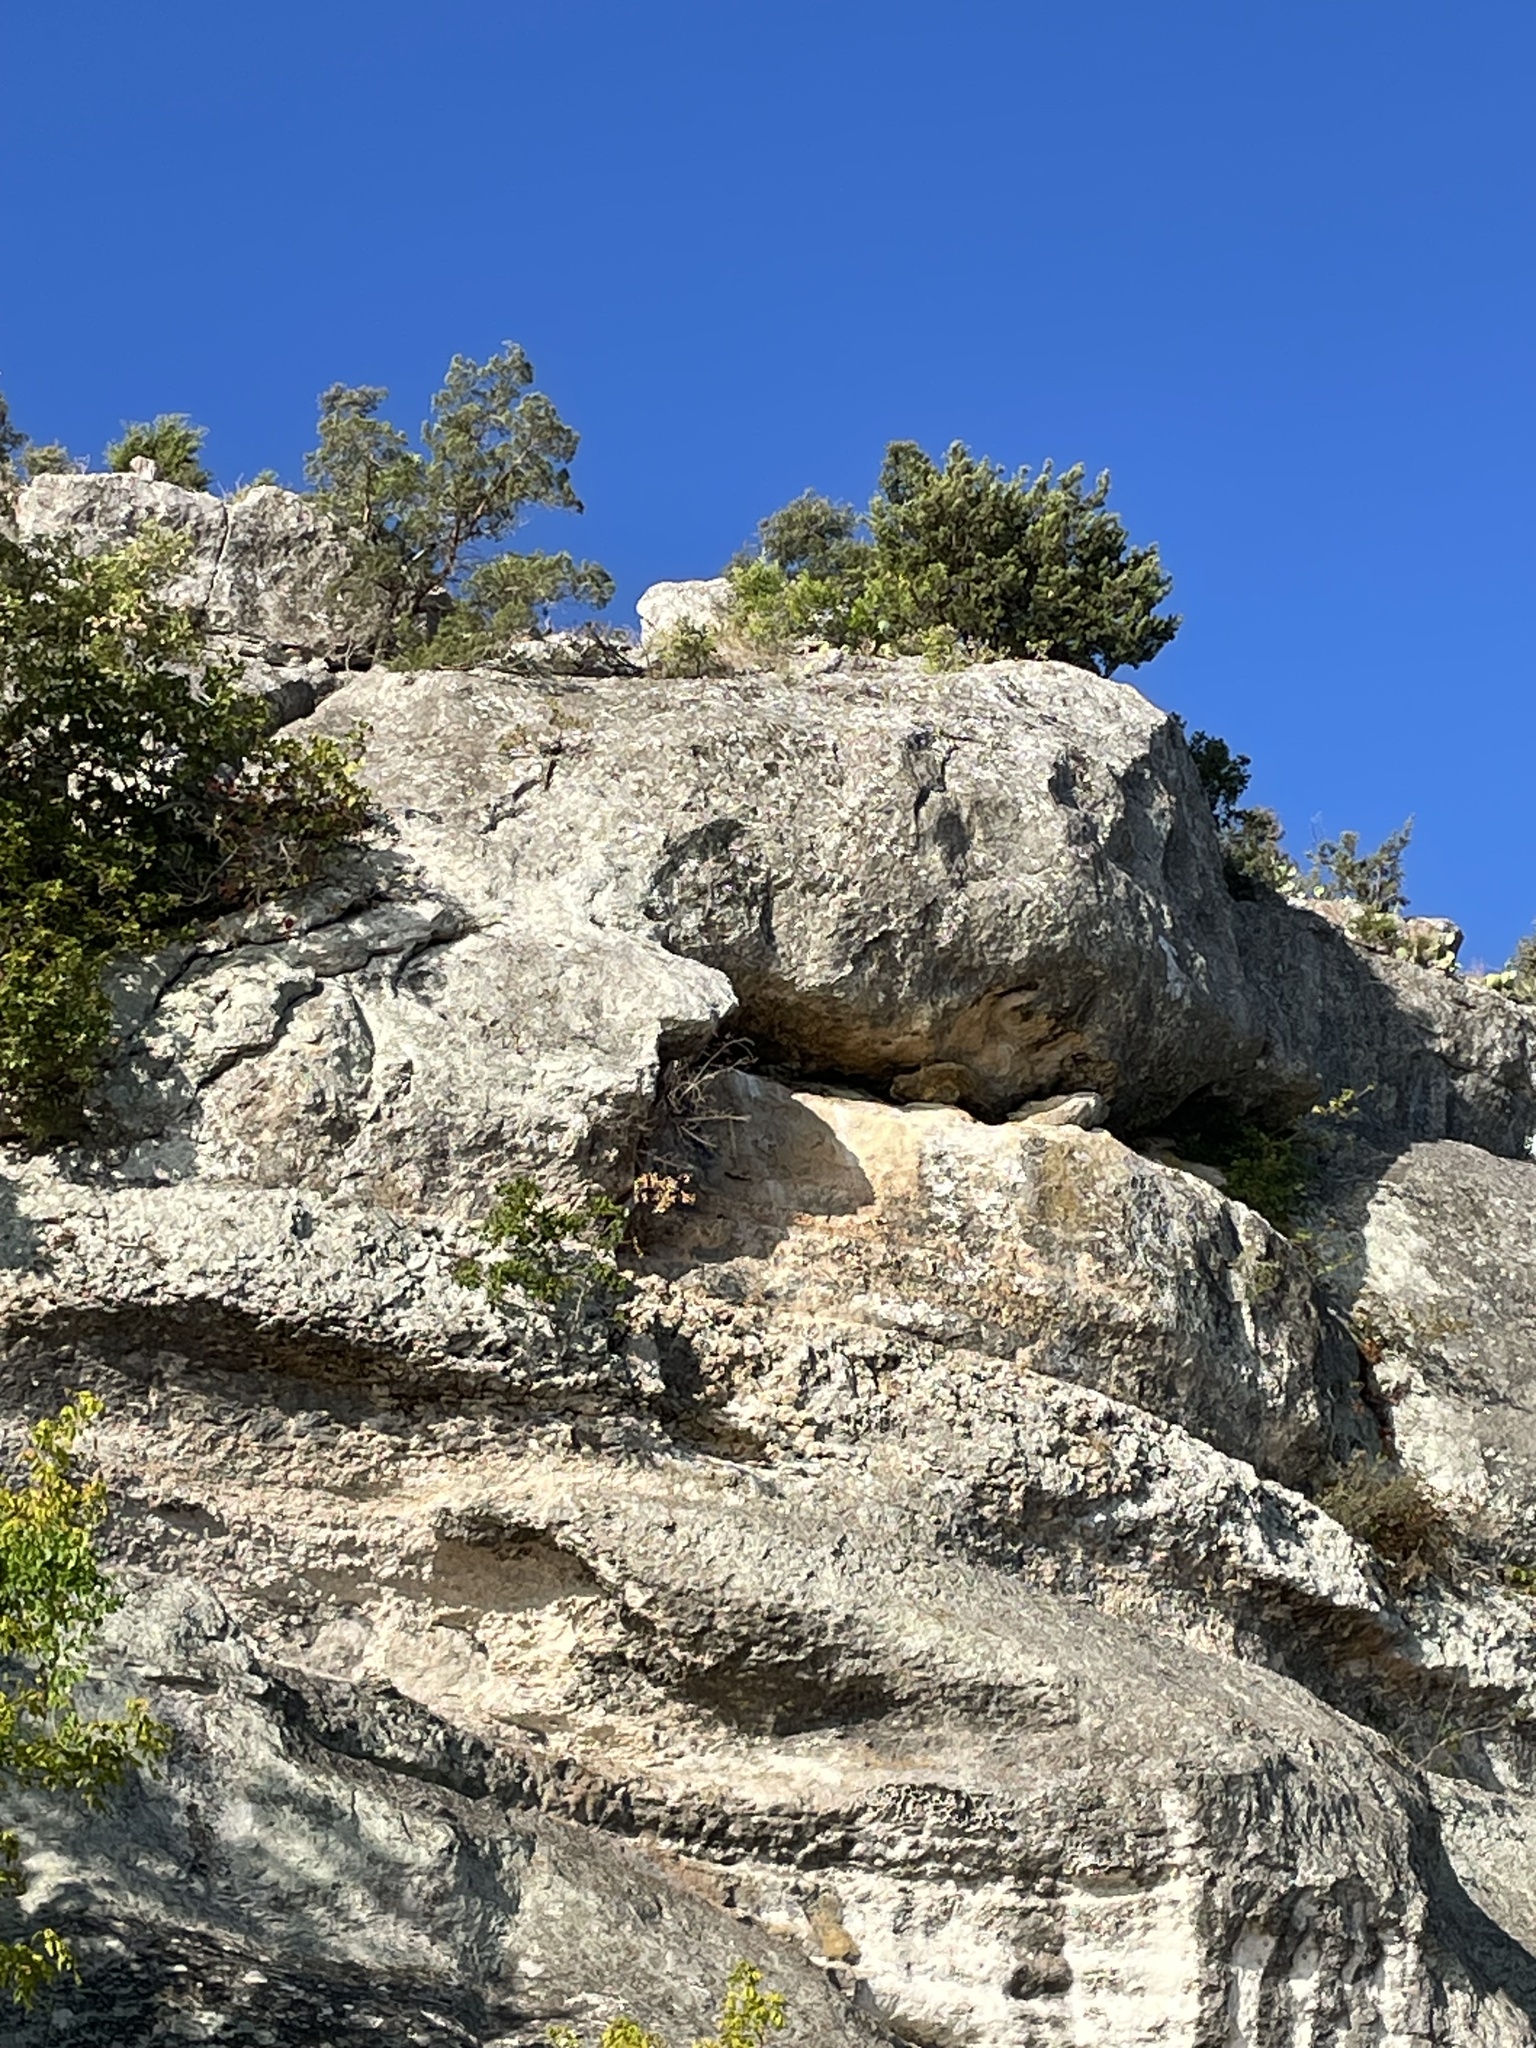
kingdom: Plantae
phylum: Tracheophyta
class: Pinopsida
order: Pinales
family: Cupressaceae
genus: Juniperus
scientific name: Juniperus ashei
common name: Mexican juniper
